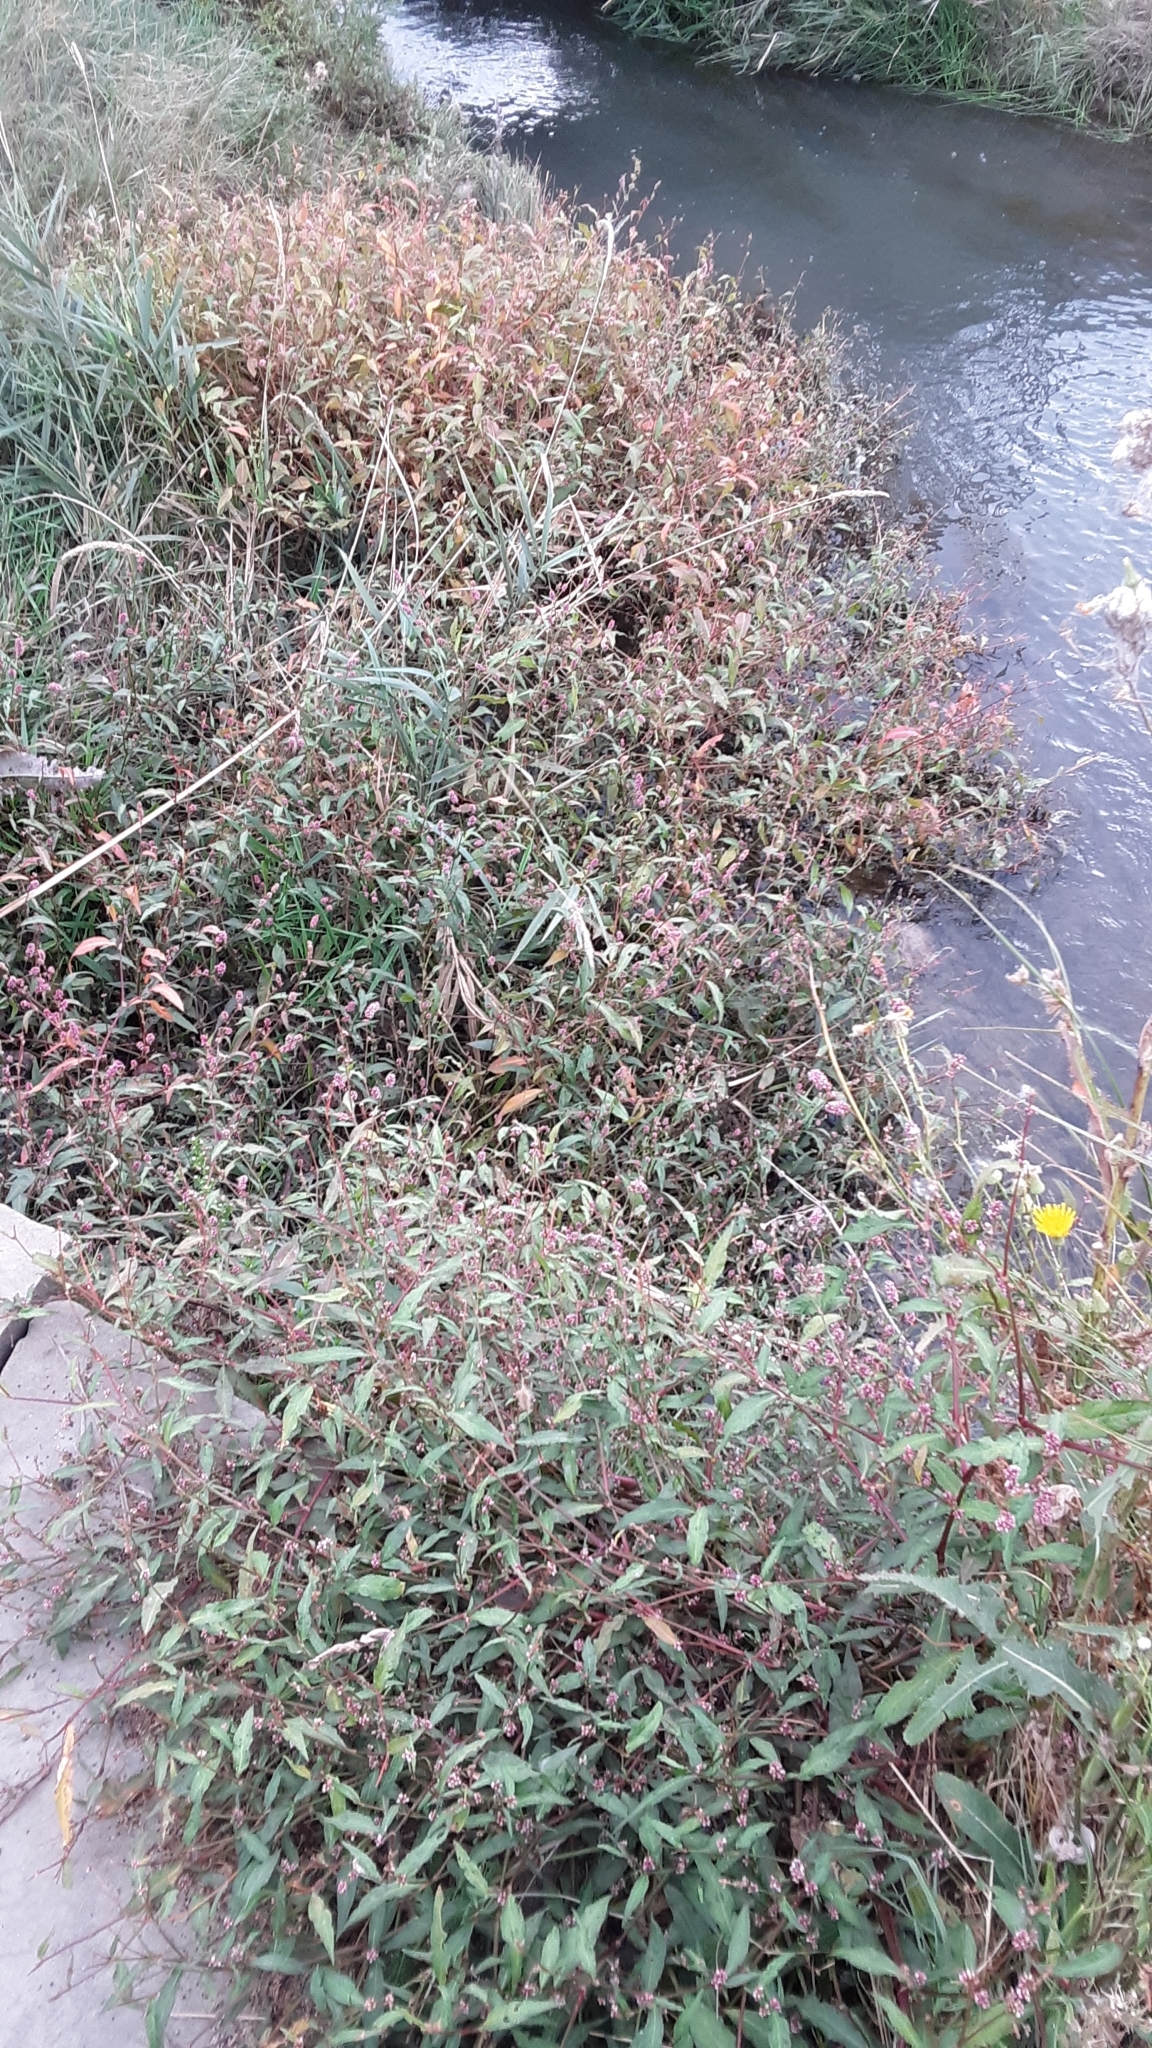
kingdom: Plantae
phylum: Tracheophyta
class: Magnoliopsida
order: Caryophyllales
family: Polygonaceae
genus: Persicaria
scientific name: Persicaria maculosa
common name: Redshank
